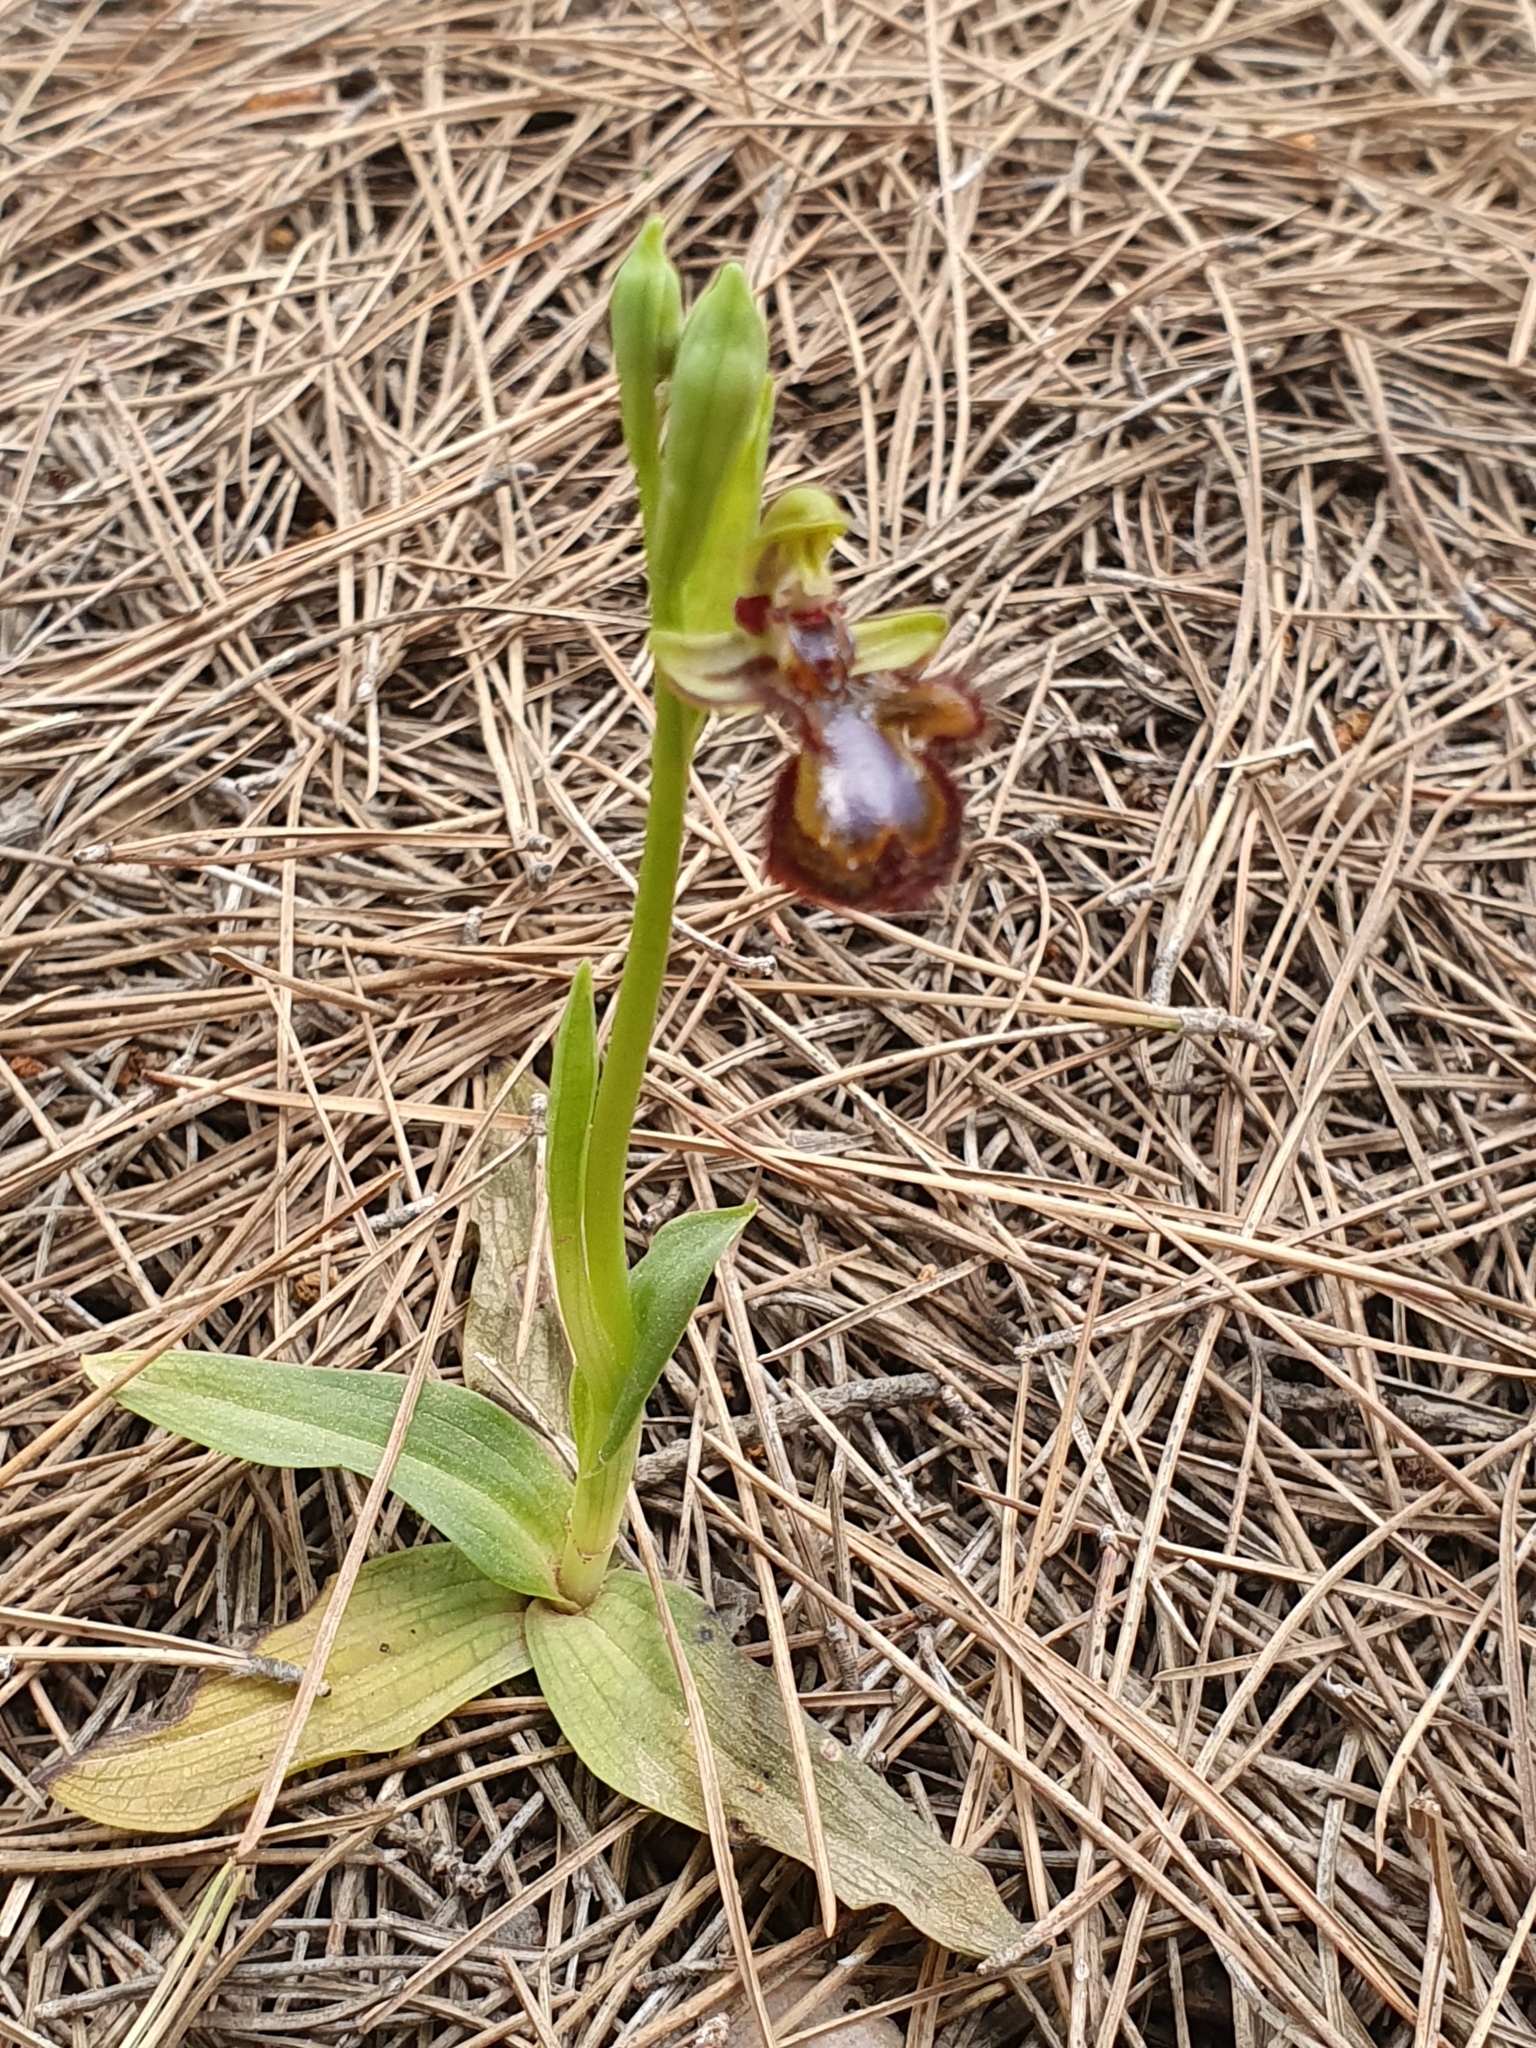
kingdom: Plantae
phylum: Tracheophyta
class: Liliopsida
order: Asparagales
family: Orchidaceae
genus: Ophrys
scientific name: Ophrys speculum
